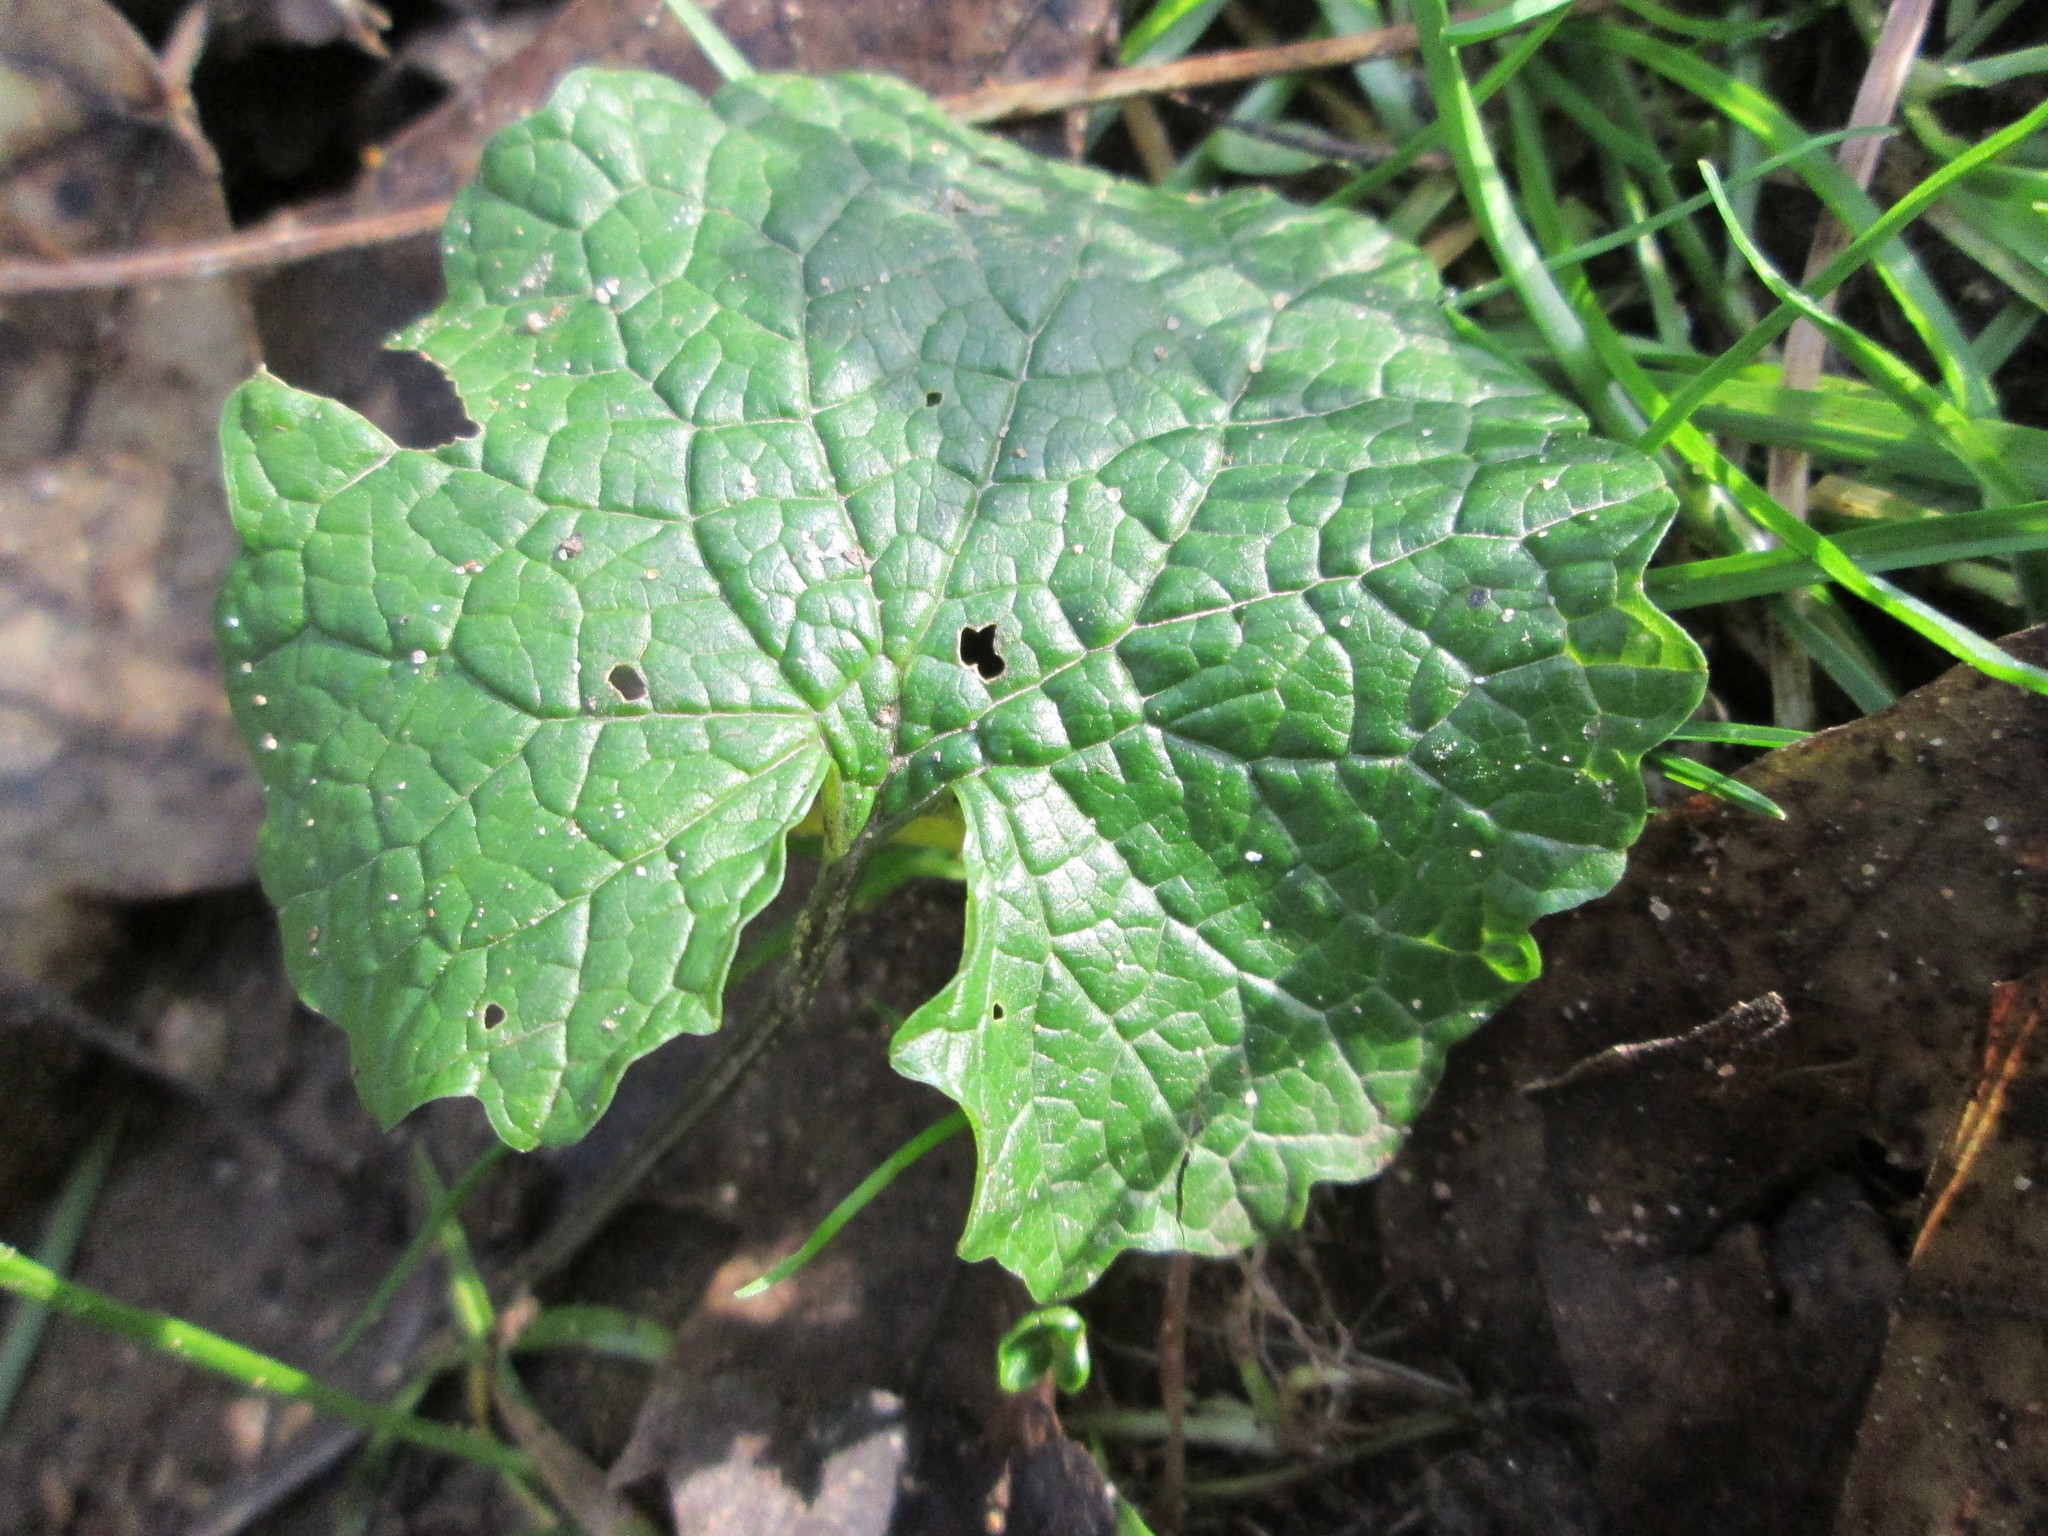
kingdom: Plantae
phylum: Tracheophyta
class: Magnoliopsida
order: Brassicales
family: Brassicaceae
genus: Alliaria
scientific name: Alliaria petiolata
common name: Garlic mustard
